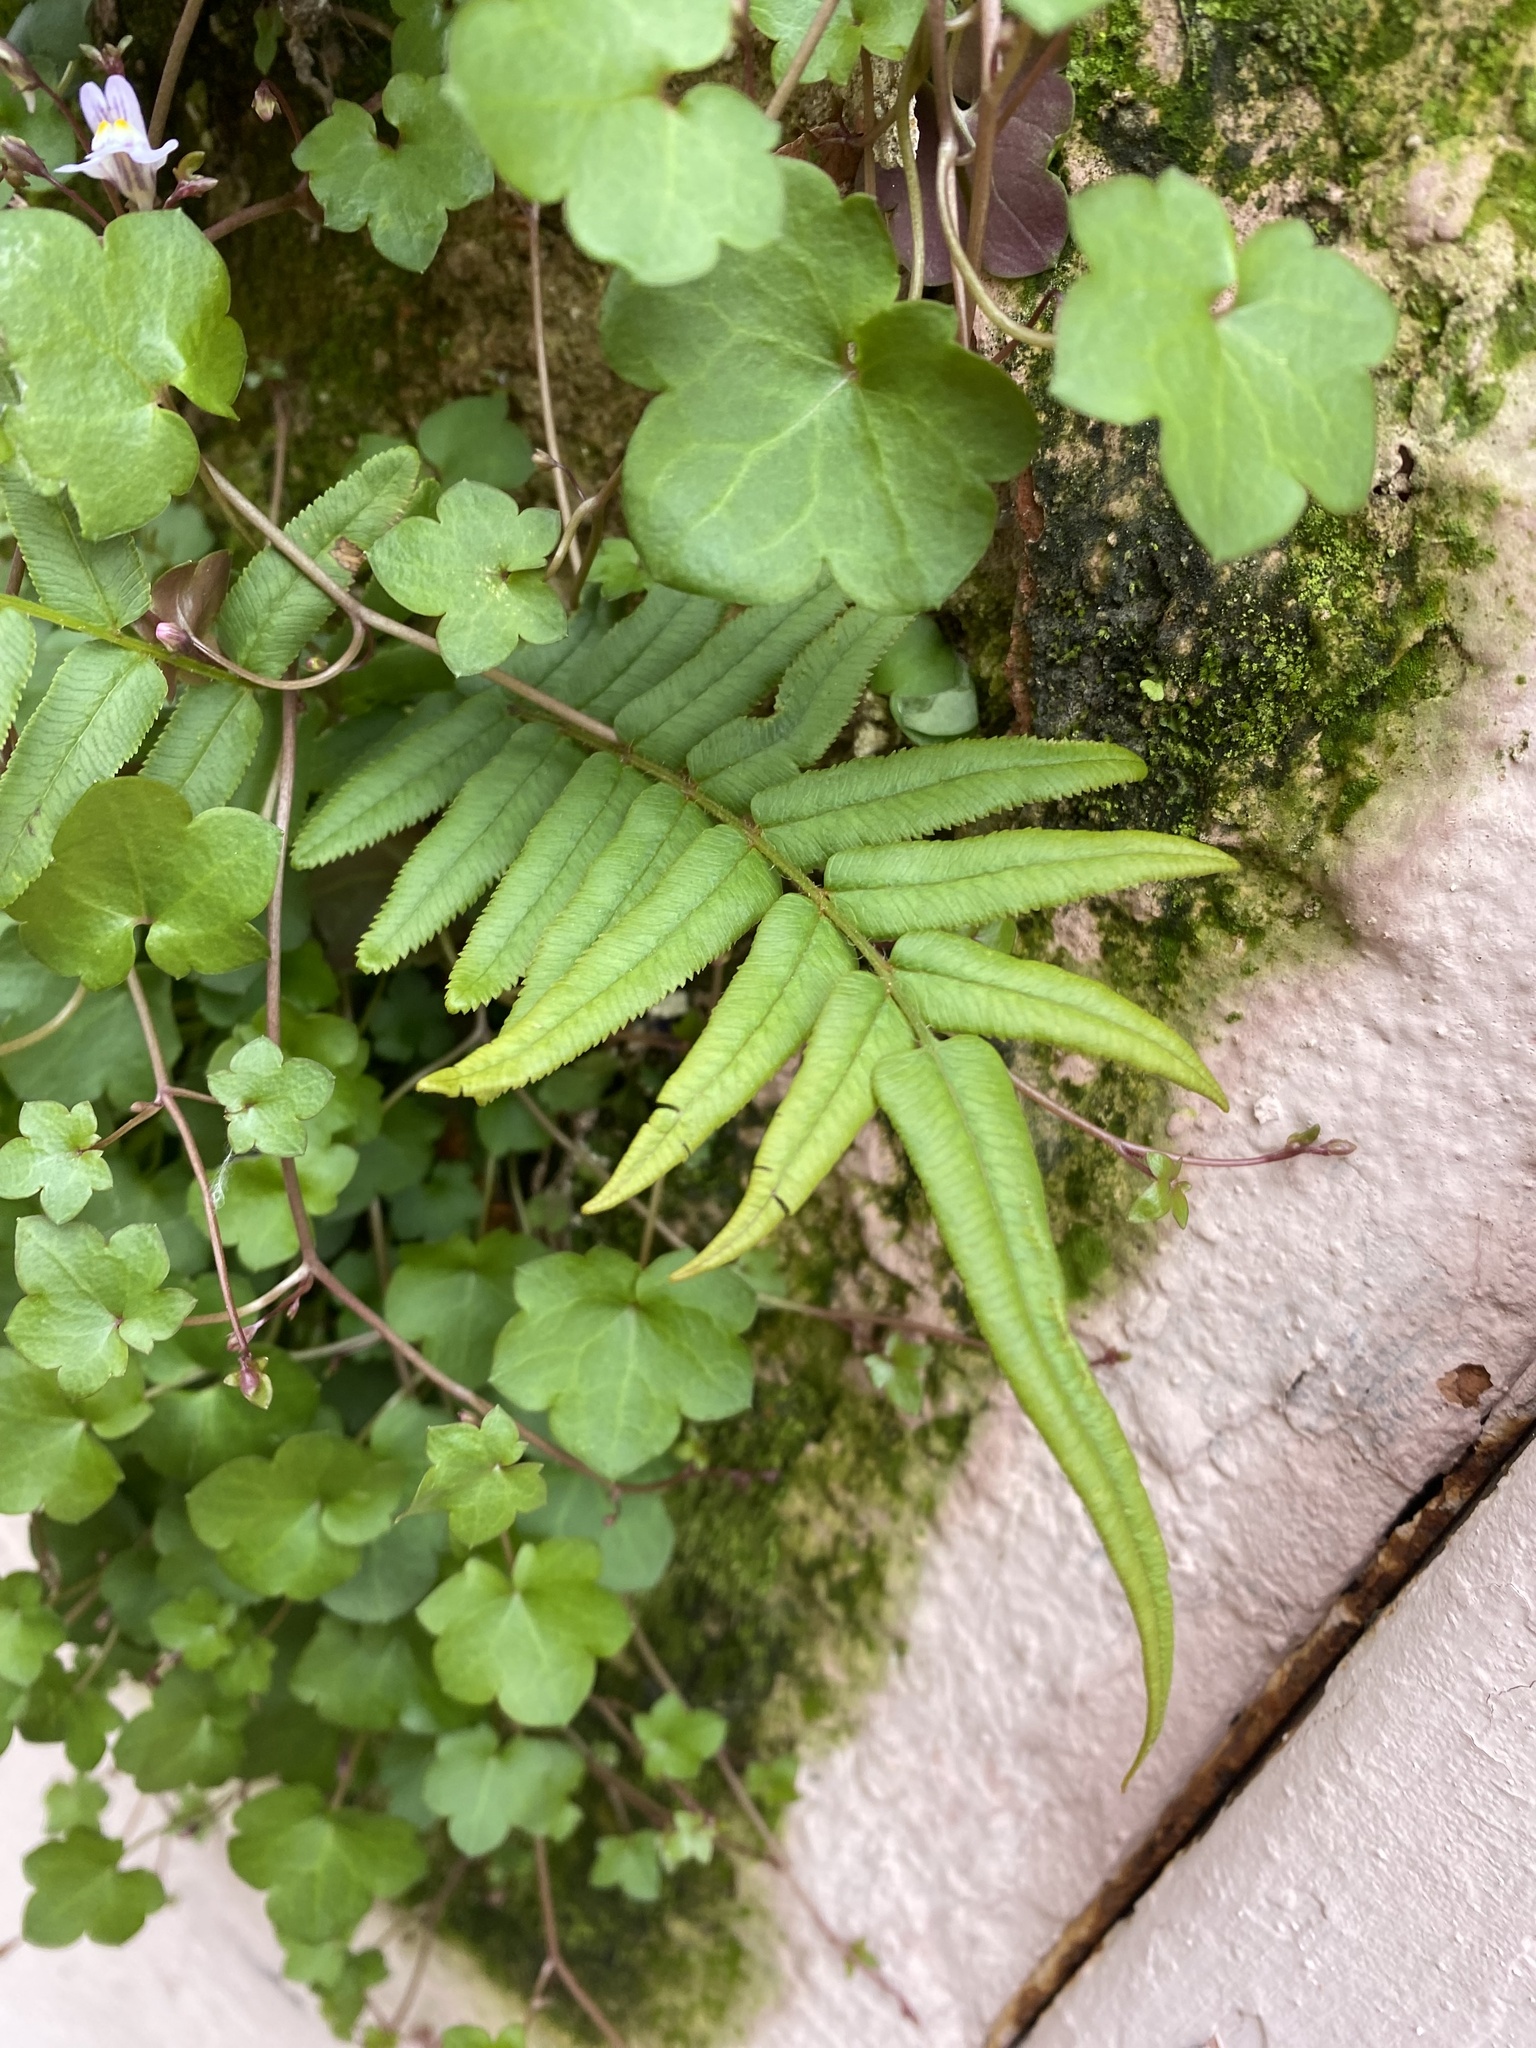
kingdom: Plantae
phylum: Tracheophyta
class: Polypodiopsida
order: Polypodiales
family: Pteridaceae
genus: Pteris
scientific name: Pteris vittata
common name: Ladder brake
